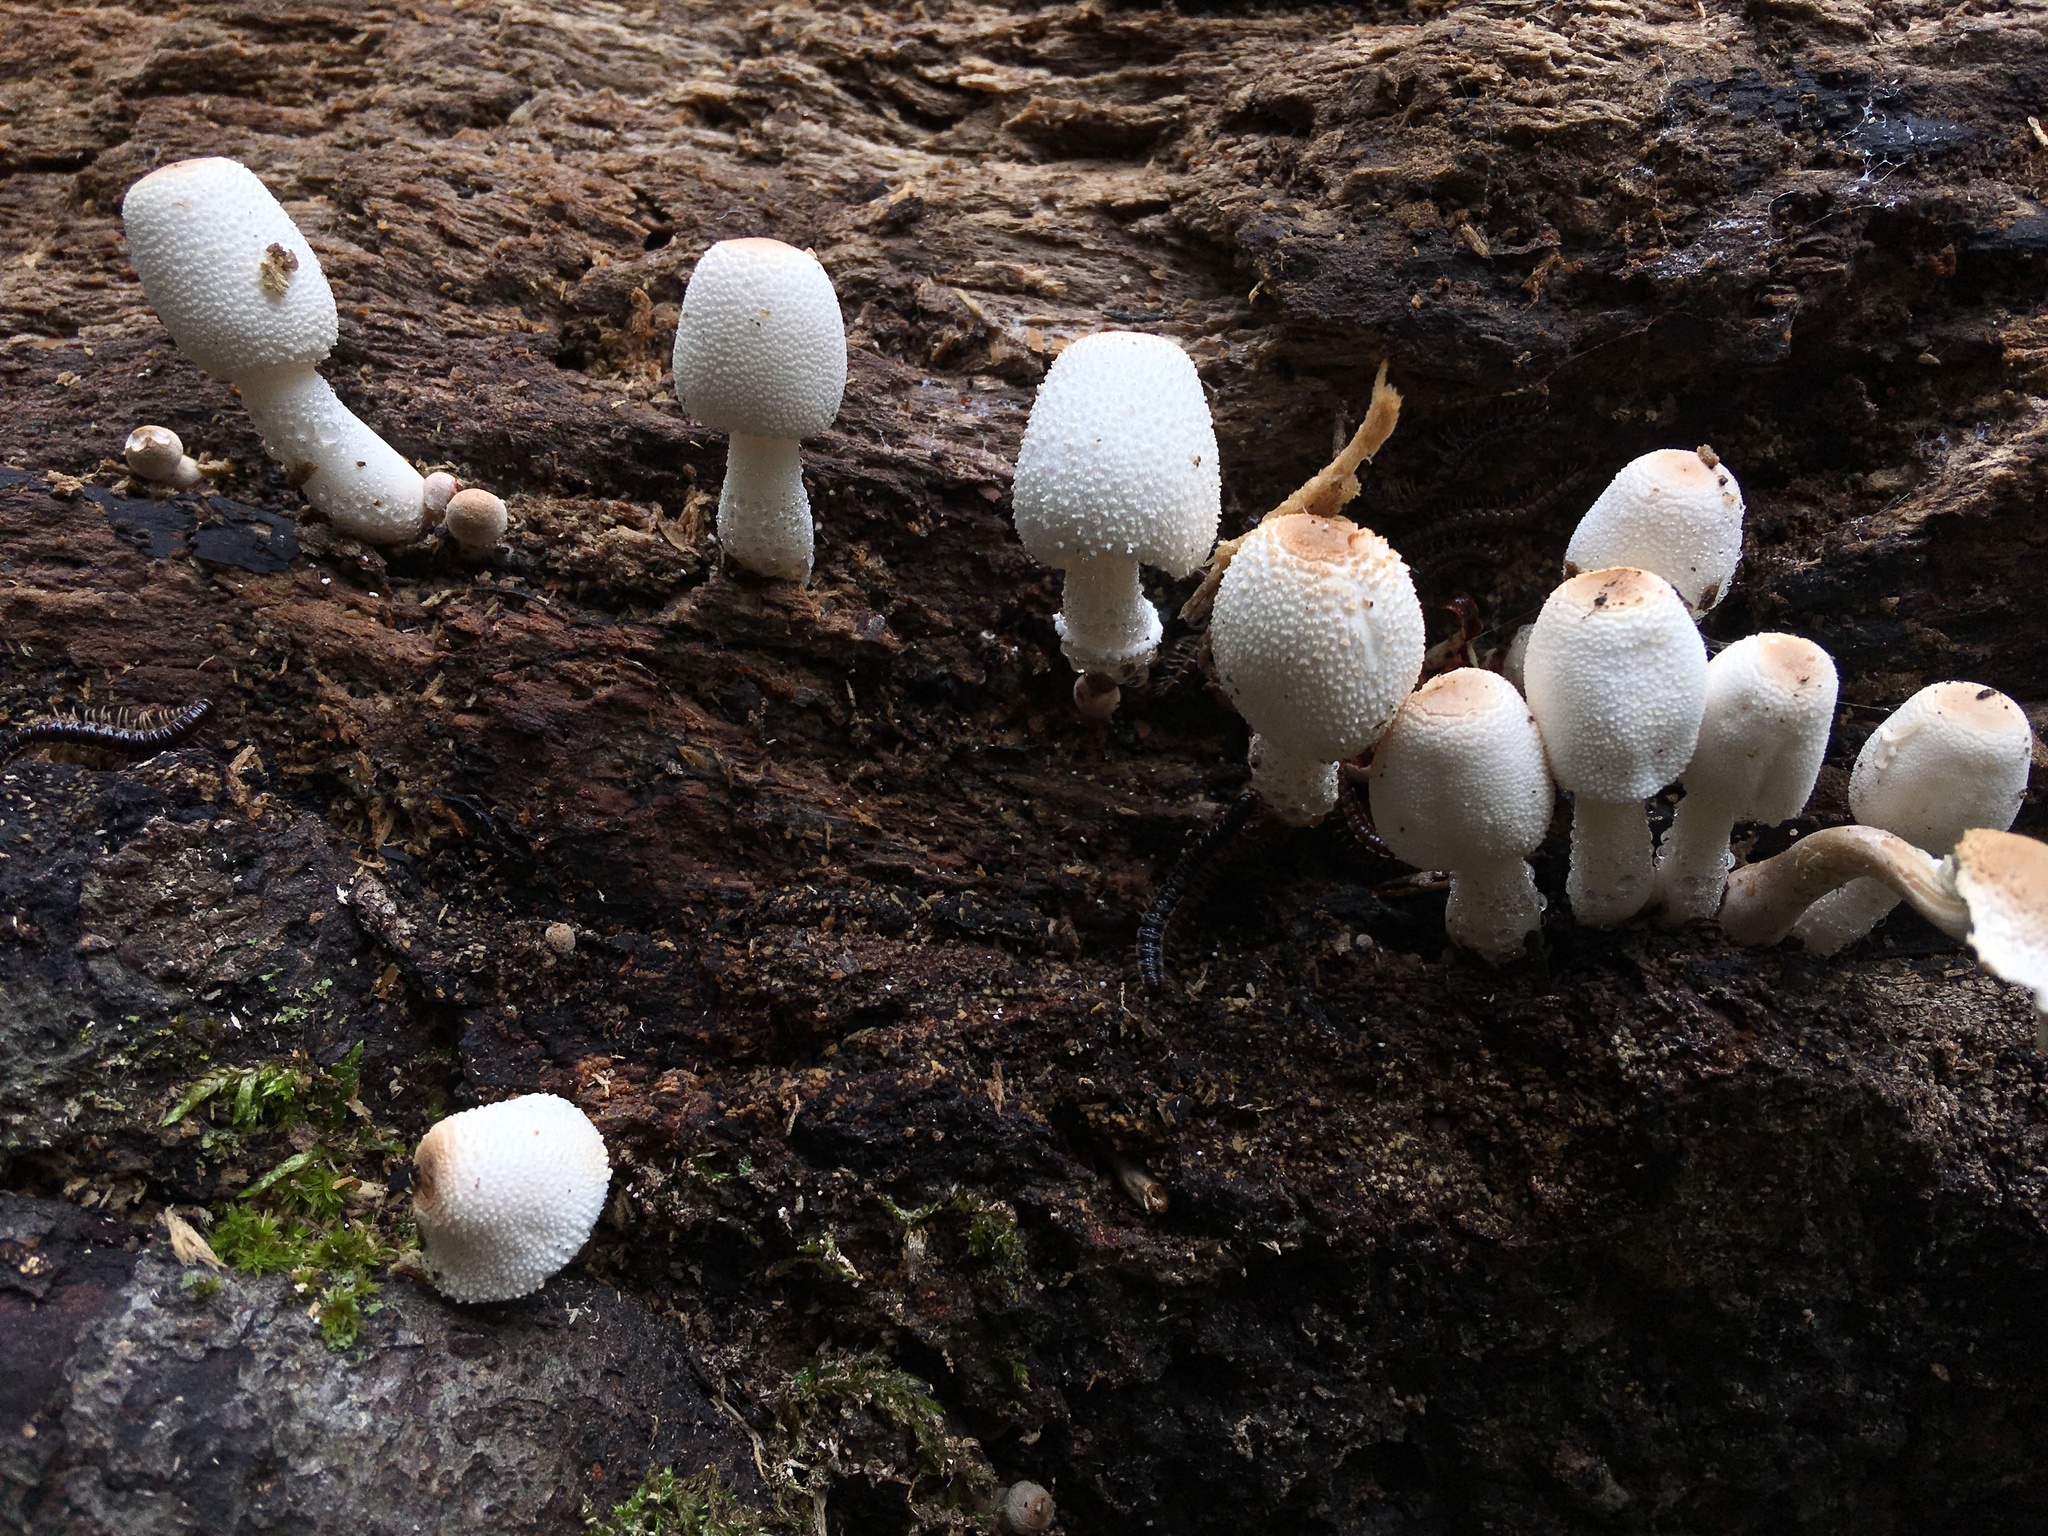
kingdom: Fungi
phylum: Basidiomycota
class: Agaricomycetes
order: Agaricales
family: Agaricaceae
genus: Leucocoprinus
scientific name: Leucocoprinus cepistipes
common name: Onion-stalk parasol
